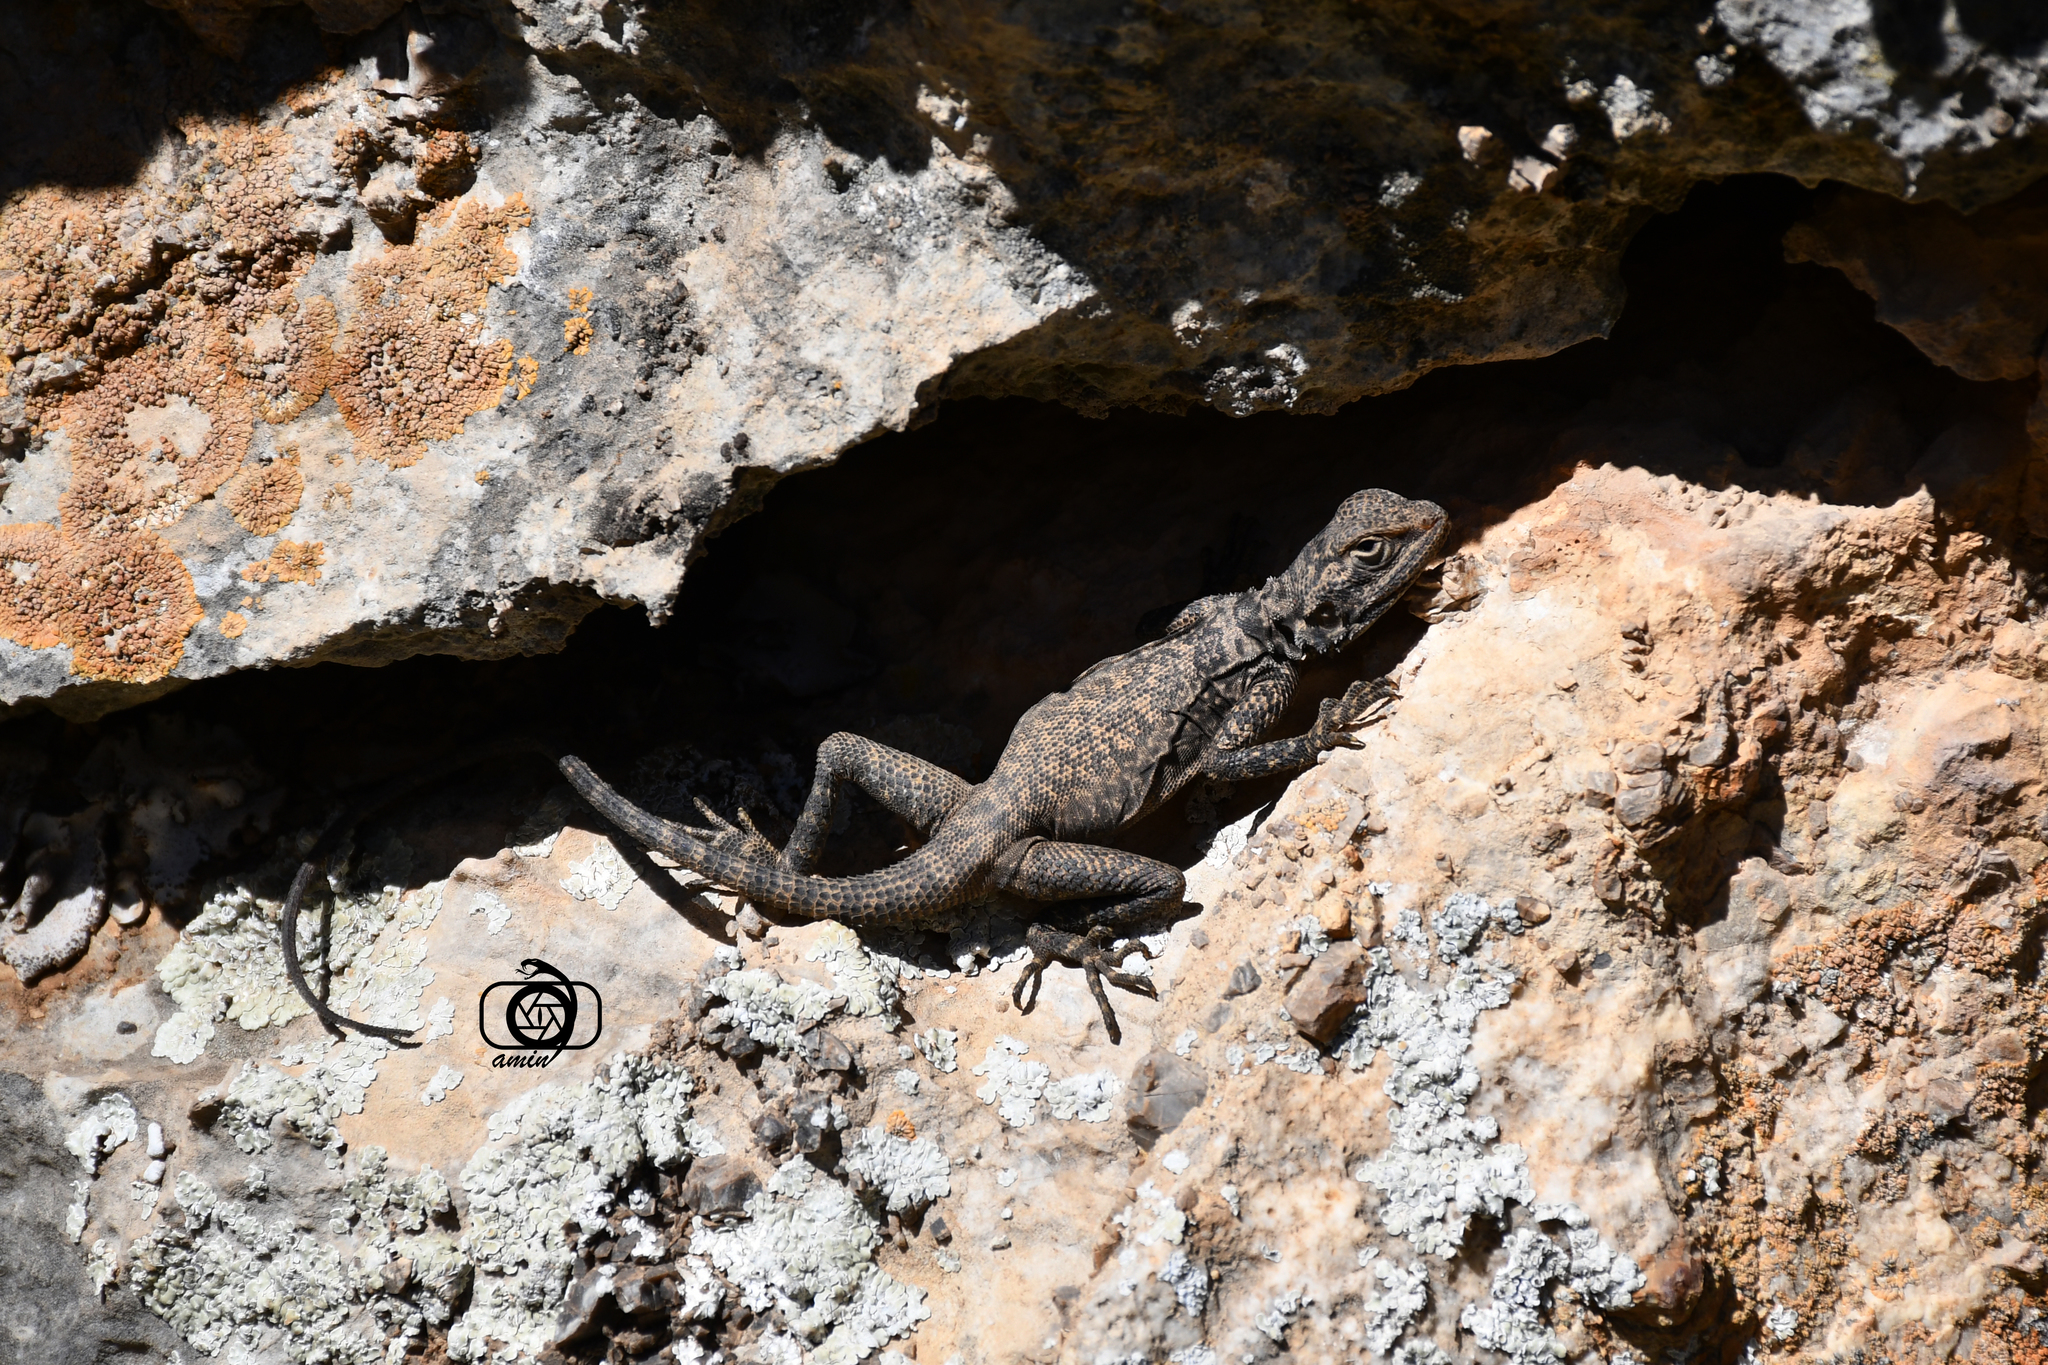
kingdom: Animalia
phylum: Chordata
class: Squamata
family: Agamidae
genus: Laudakia
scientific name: Laudakia nupta
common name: Large-headed rock agama
